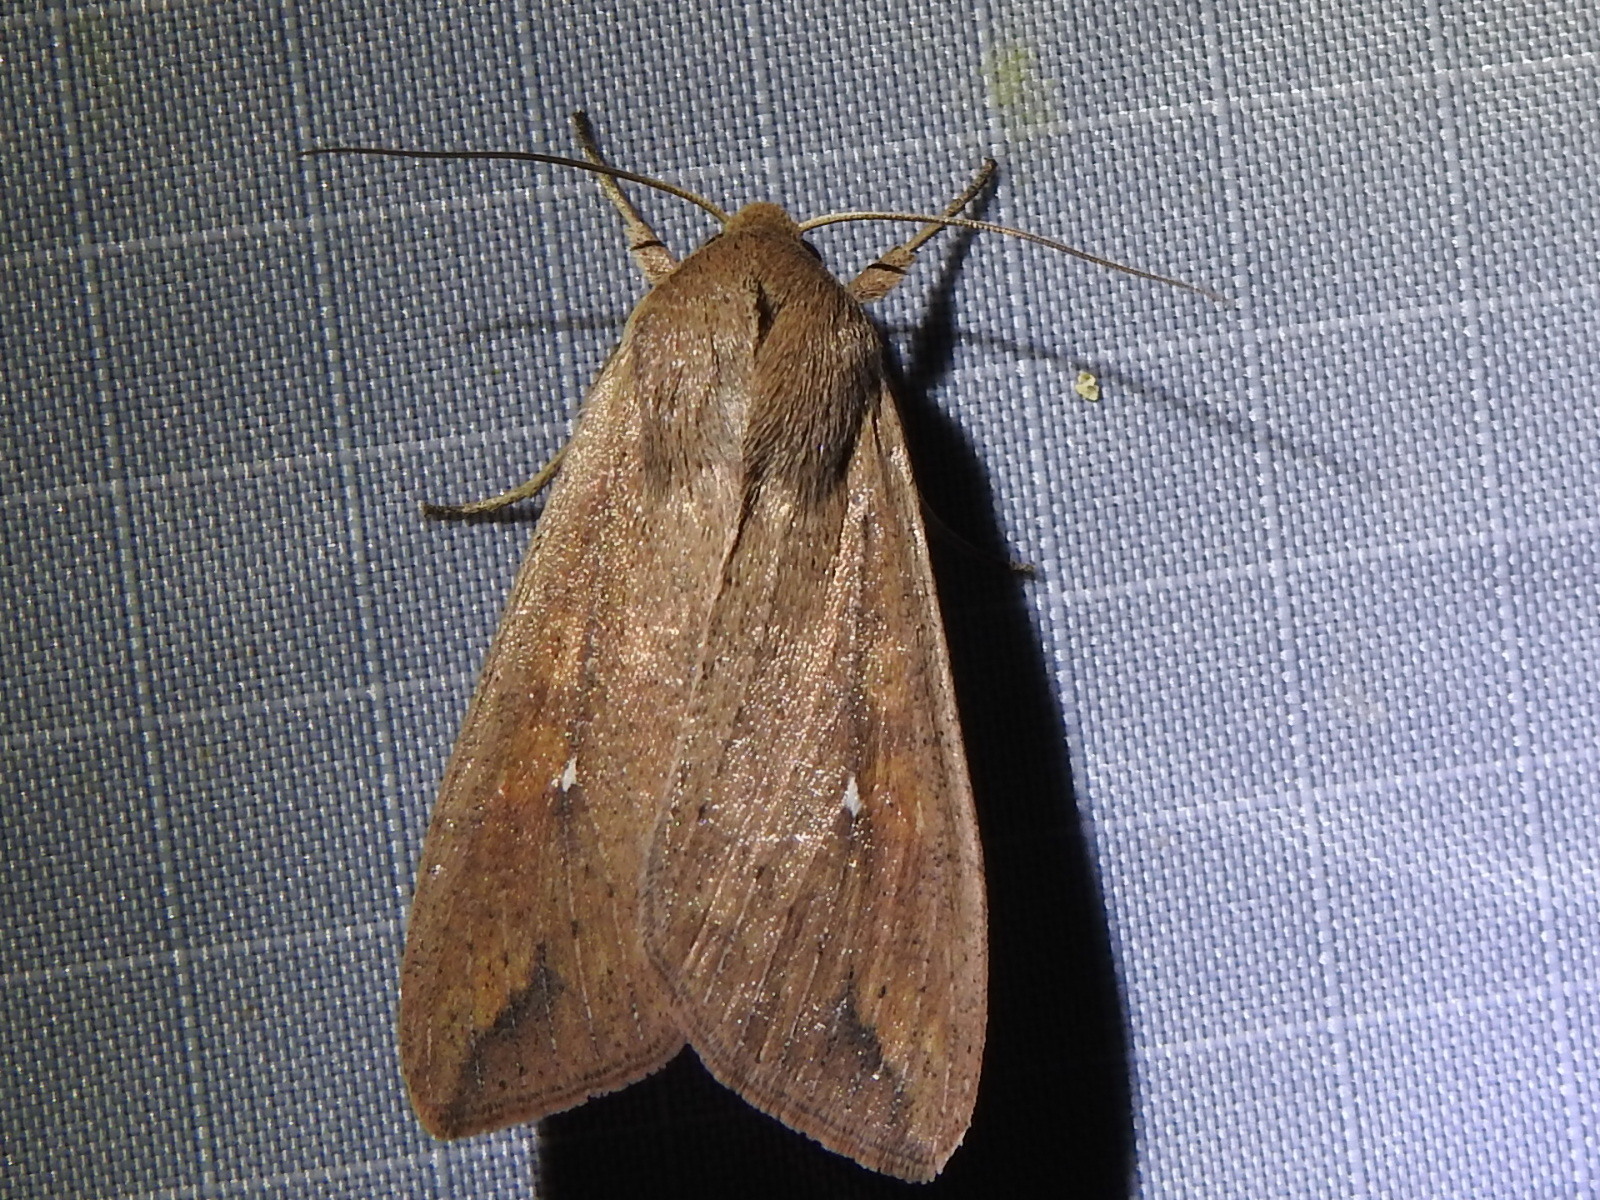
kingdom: Animalia
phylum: Arthropoda
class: Insecta
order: Lepidoptera
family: Noctuidae
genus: Mythimna
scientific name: Mythimna unipuncta
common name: White-speck
